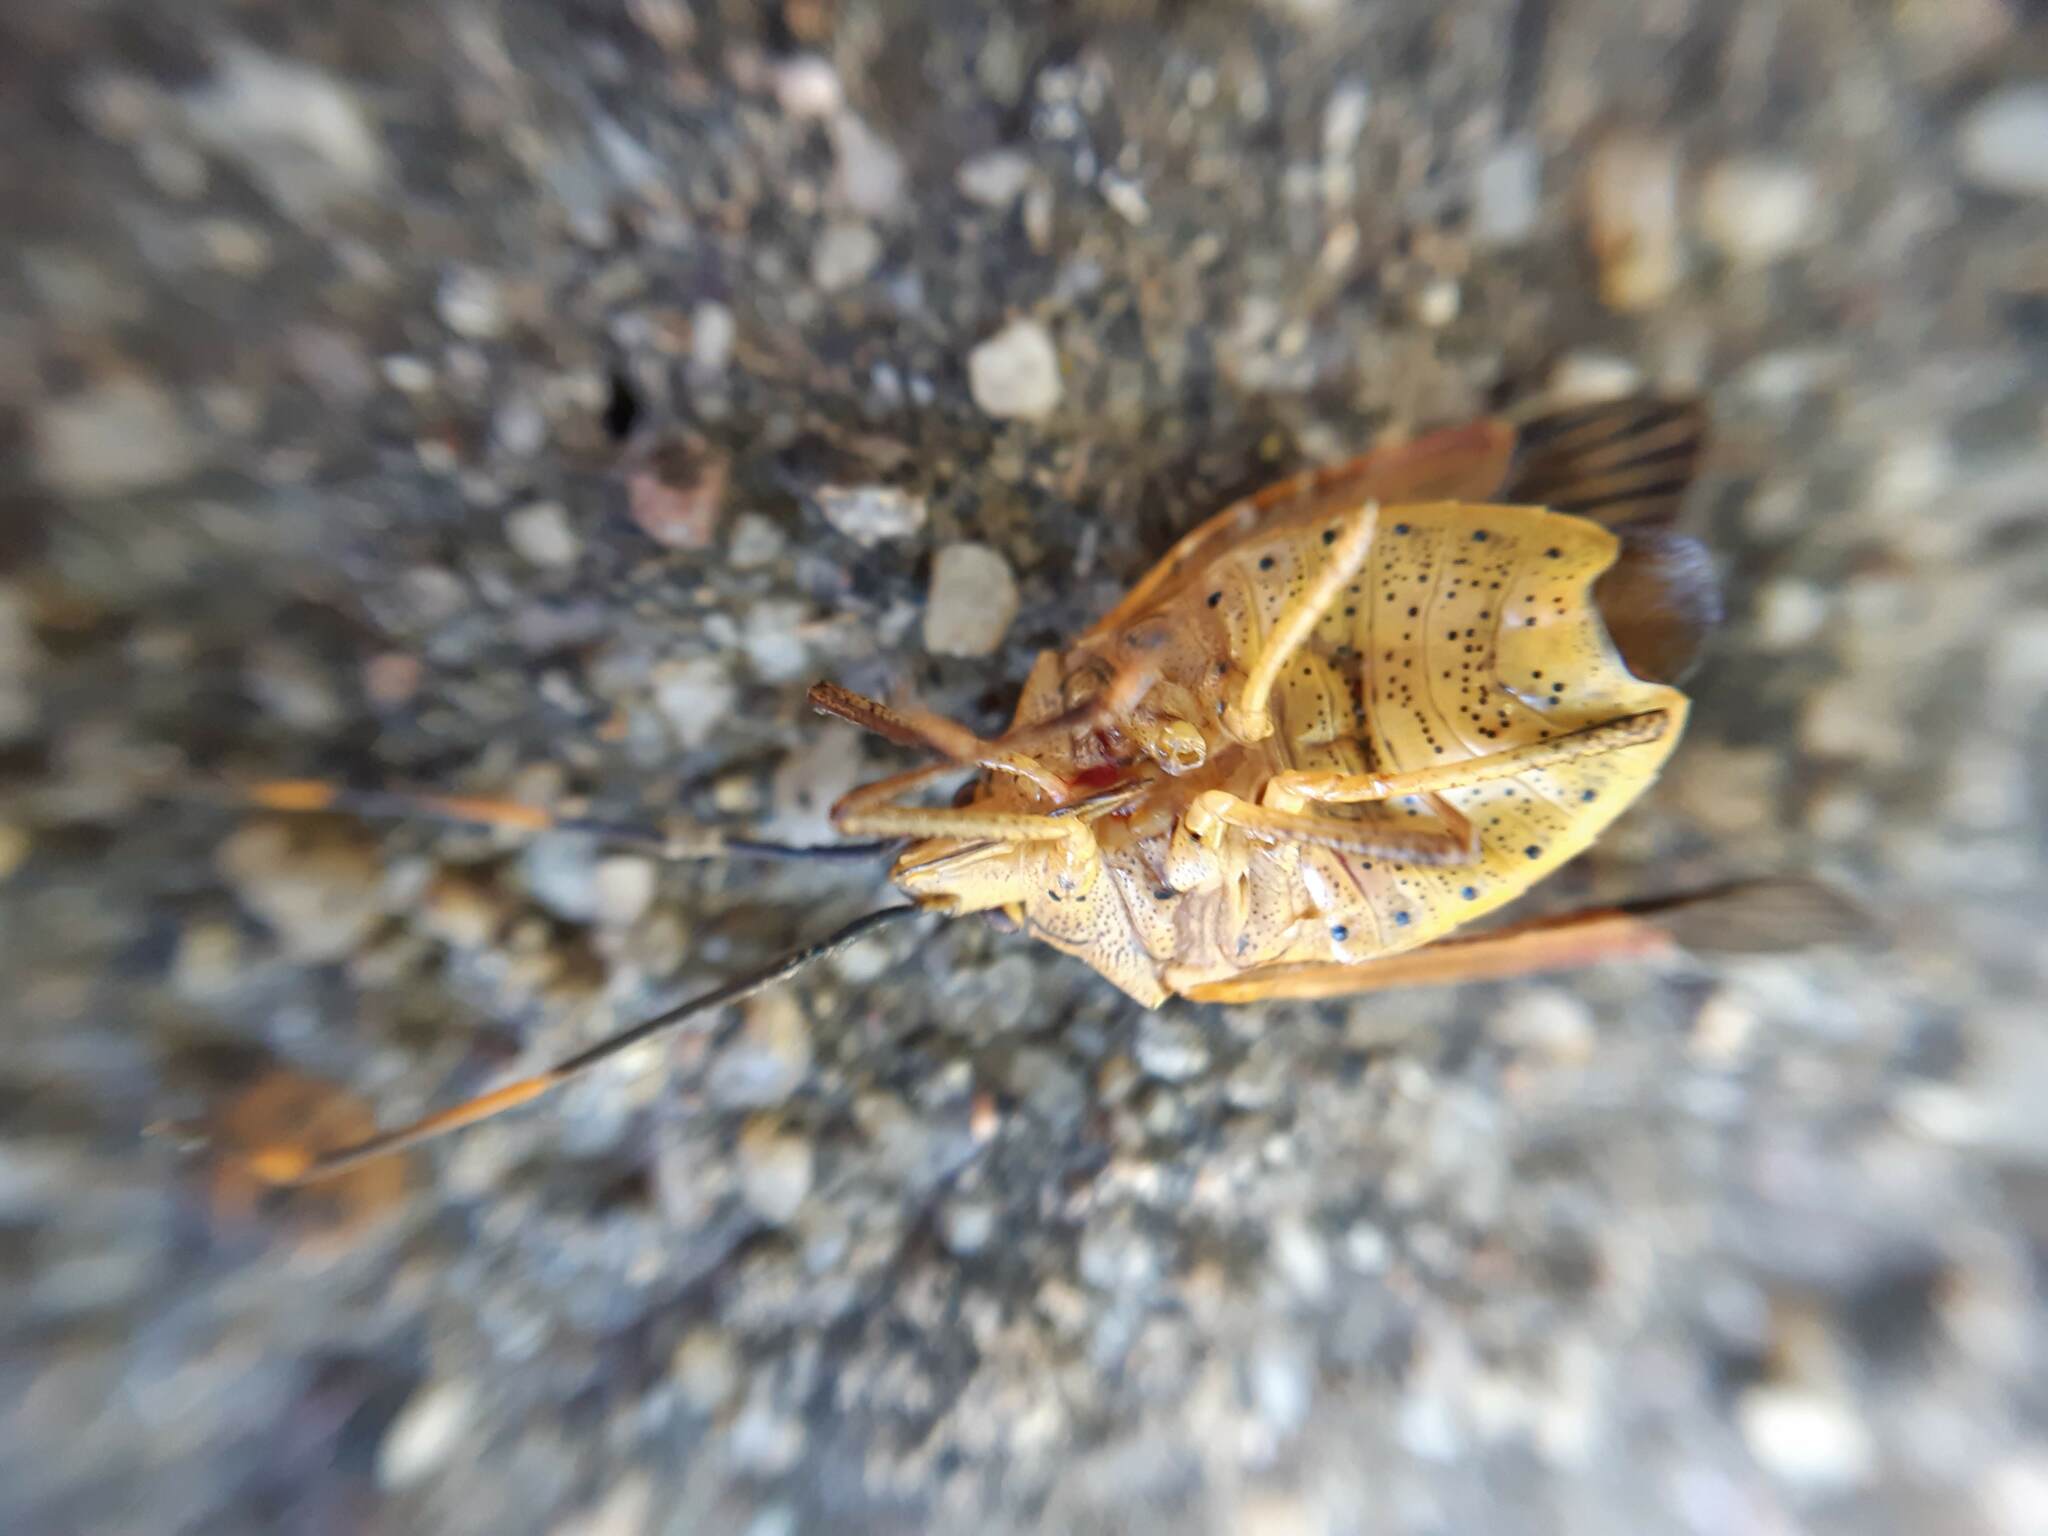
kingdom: Animalia
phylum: Arthropoda
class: Insecta
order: Hemiptera
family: Pentatomidae
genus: Poecilometis
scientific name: Poecilometis
